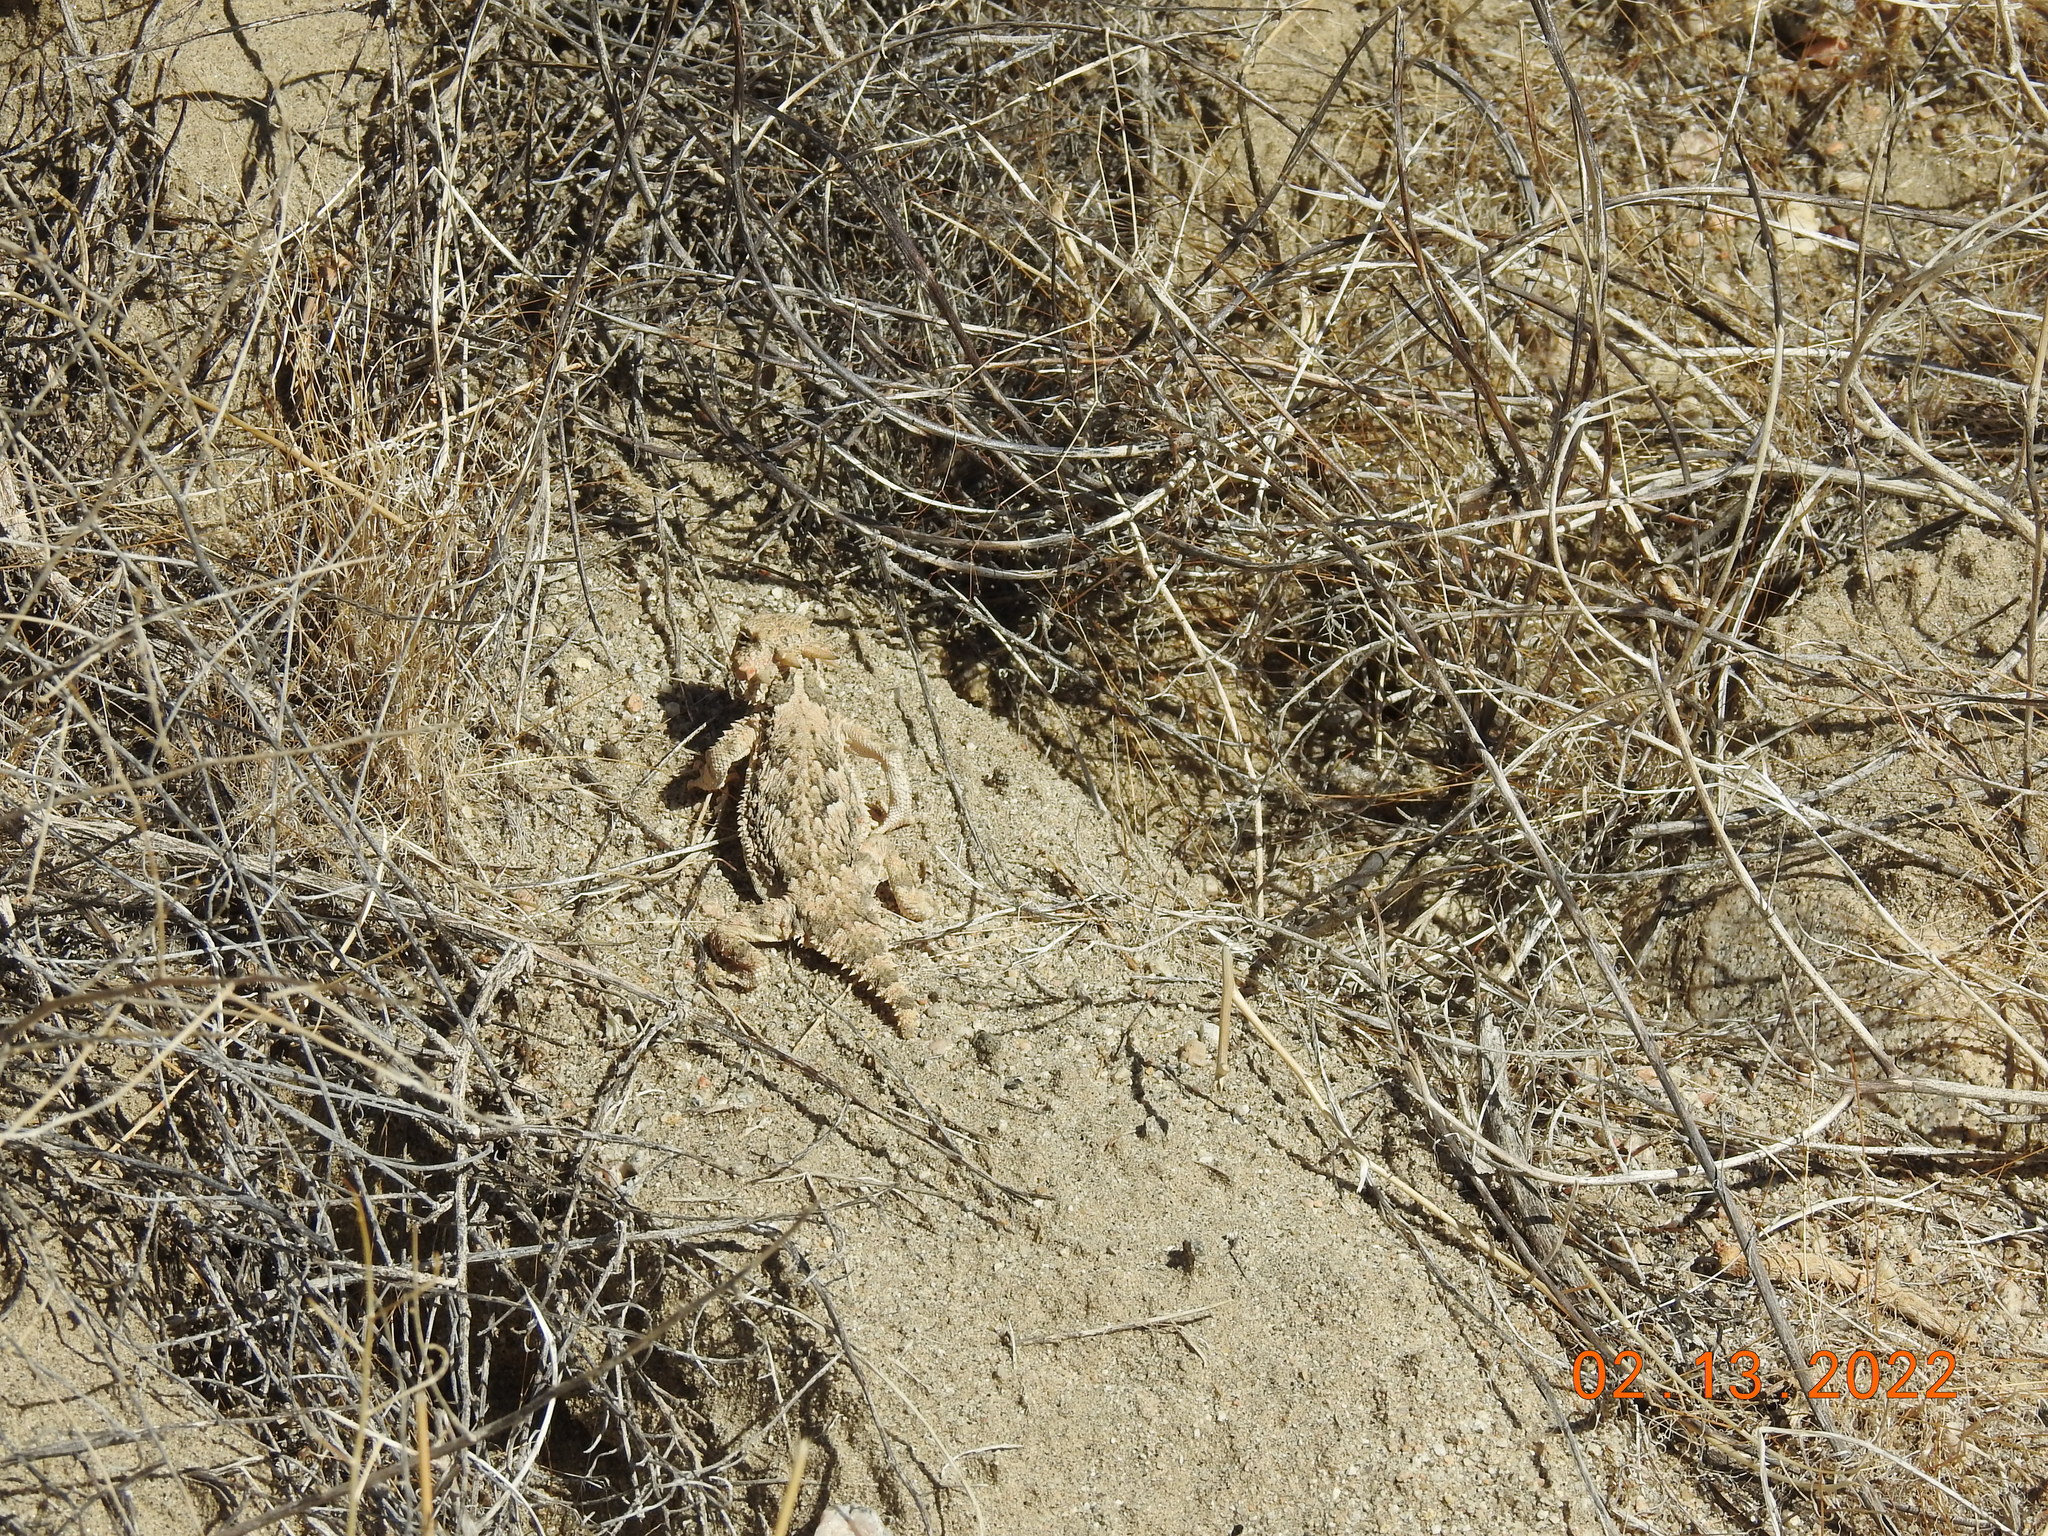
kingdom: Animalia
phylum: Chordata
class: Squamata
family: Phrynosomatidae
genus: Phrynosoma
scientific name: Phrynosoma platyrhinos
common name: Desert horned lizard
